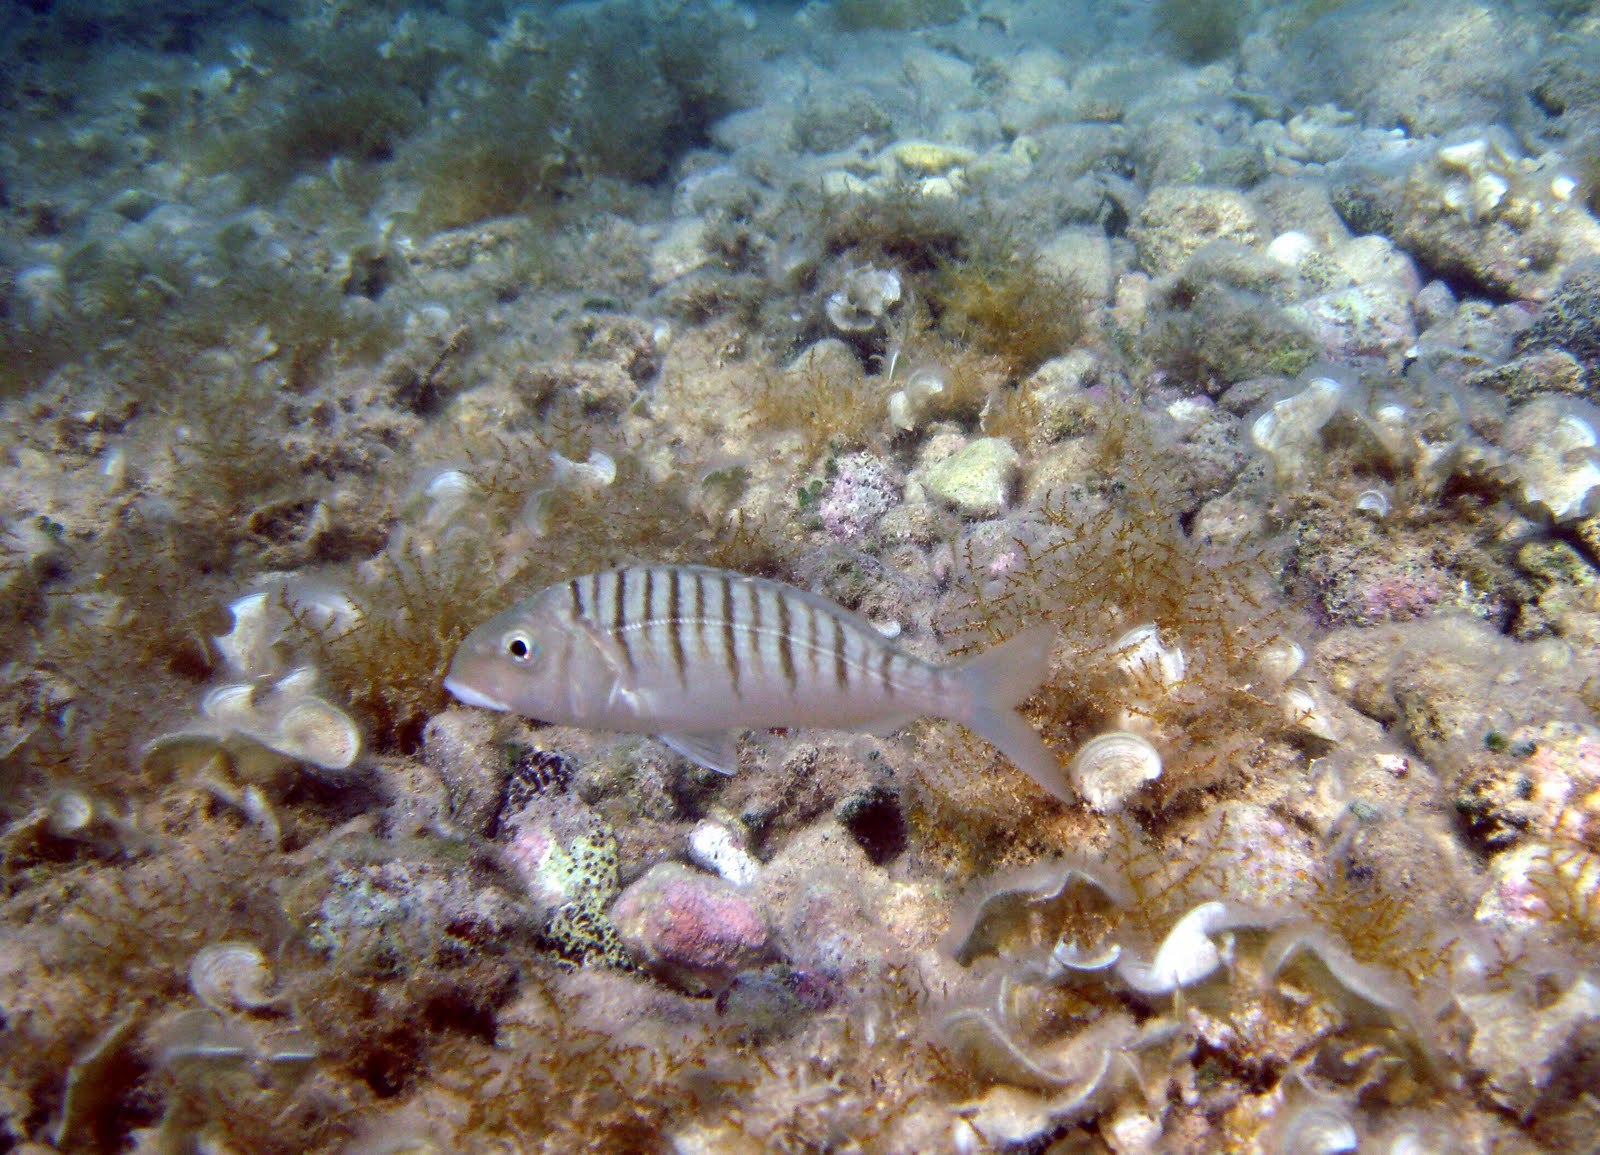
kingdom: Animalia
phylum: Chordata
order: Perciformes
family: Sparidae
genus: Lithognathus
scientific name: Lithognathus mormyrus
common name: Sand steenbras
